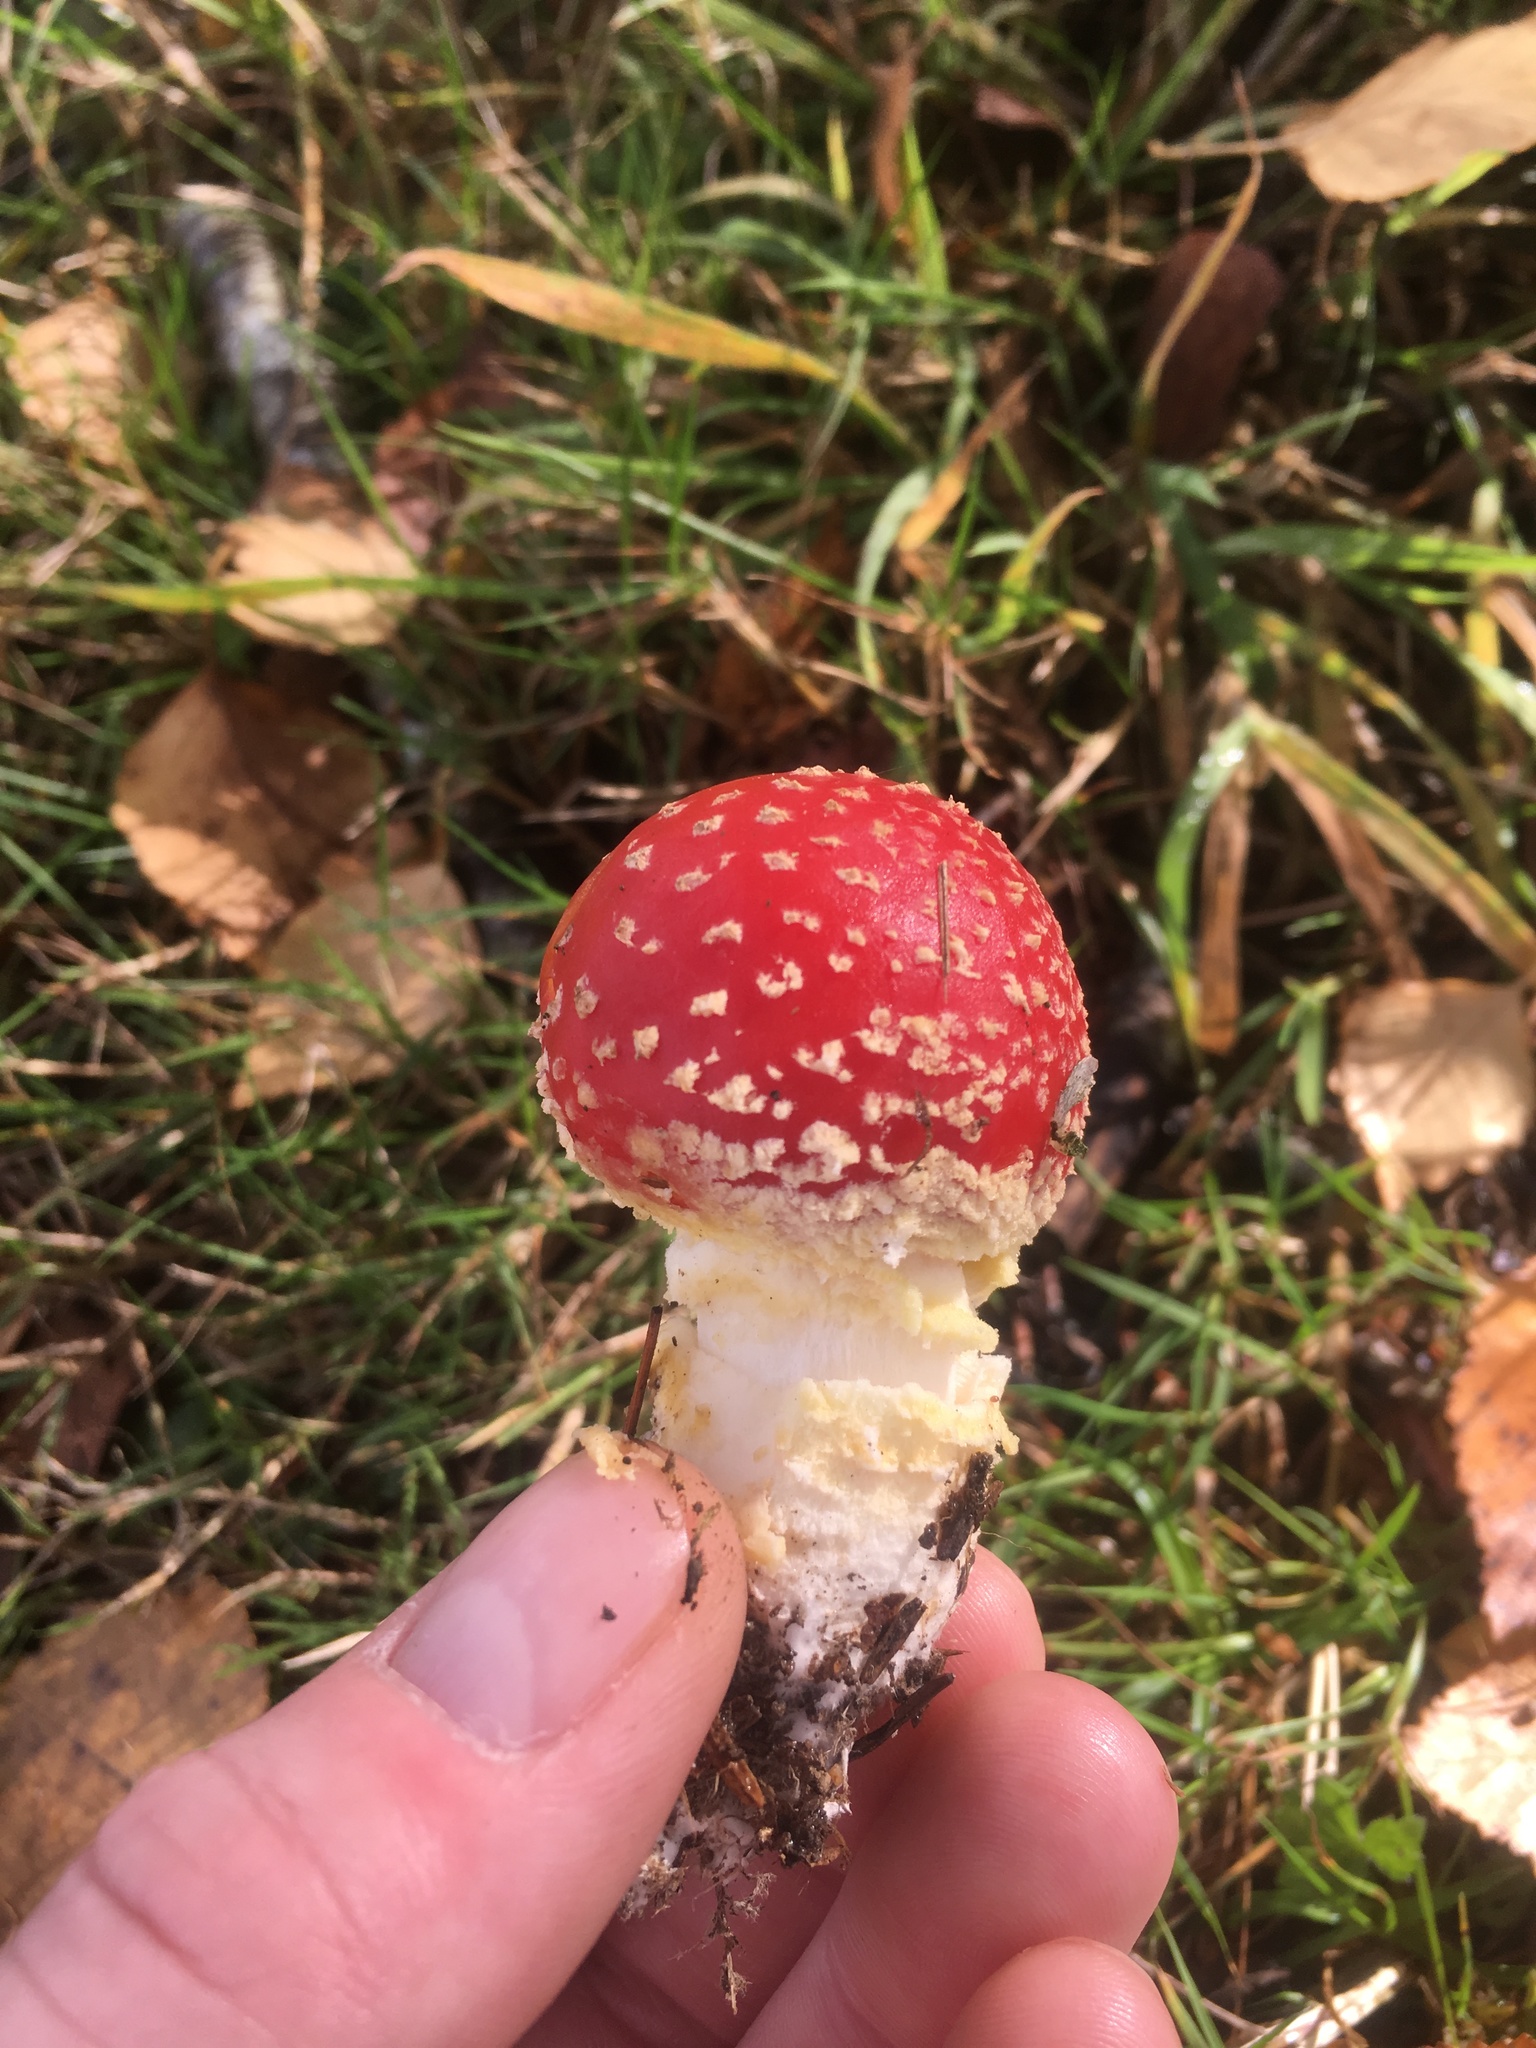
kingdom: Fungi
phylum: Basidiomycota
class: Agaricomycetes
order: Agaricales
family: Amanitaceae
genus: Amanita
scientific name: Amanita muscaria
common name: Fly agaric
